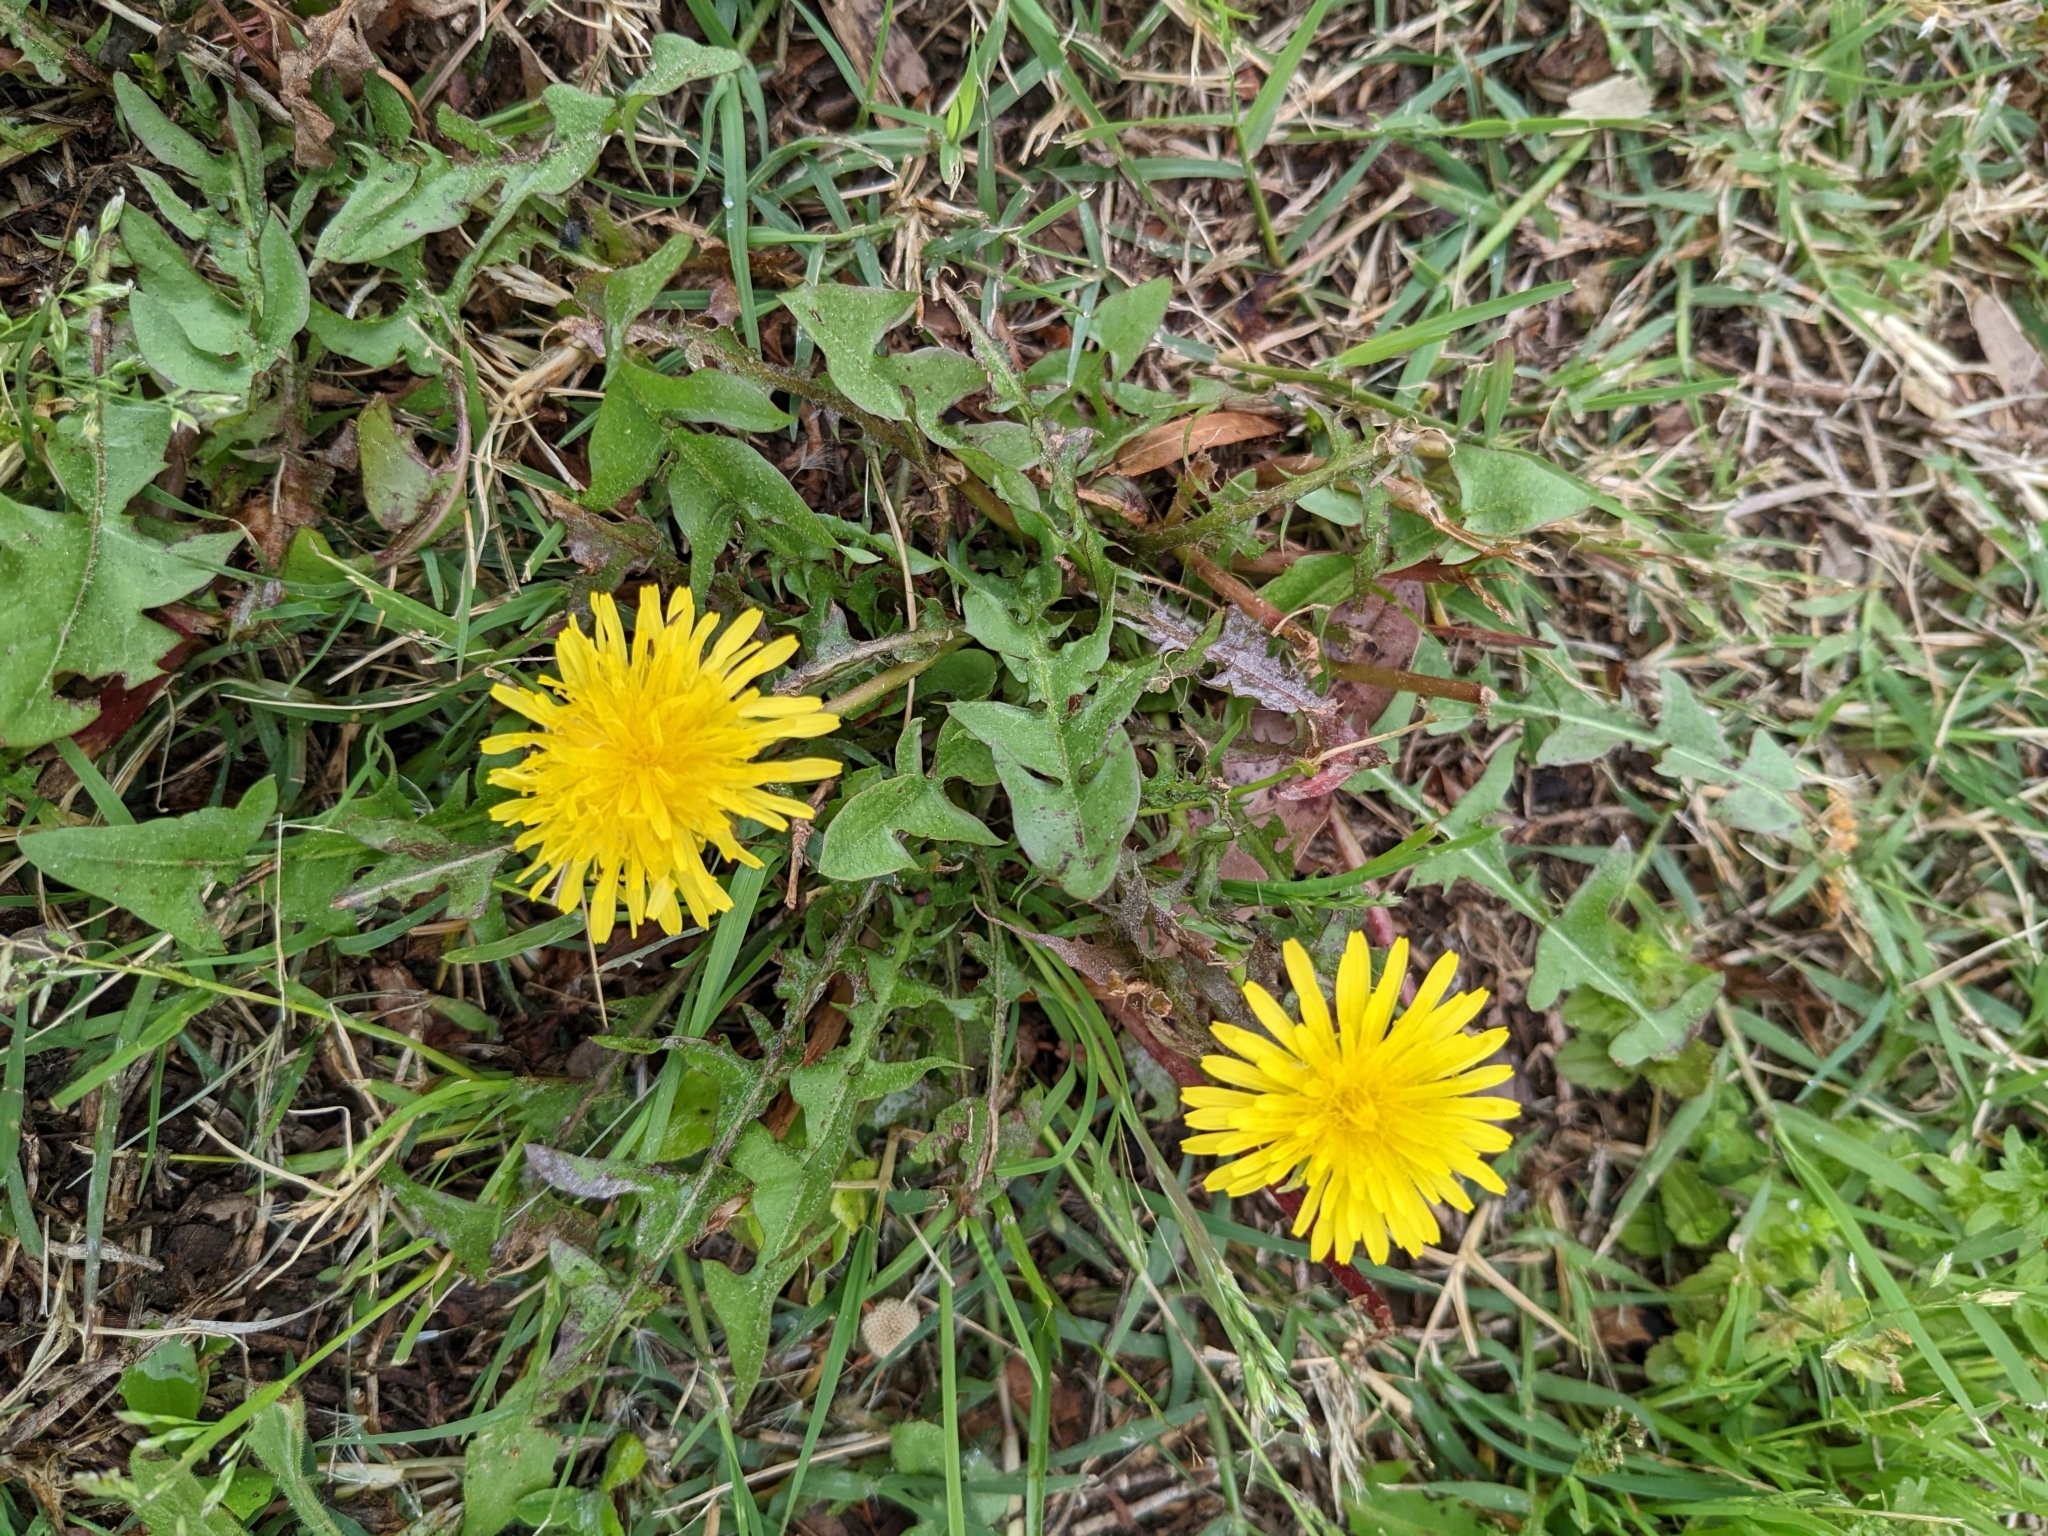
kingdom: Plantae
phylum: Tracheophyta
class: Magnoliopsida
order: Asterales
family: Asteraceae
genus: Taraxacum
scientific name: Taraxacum
